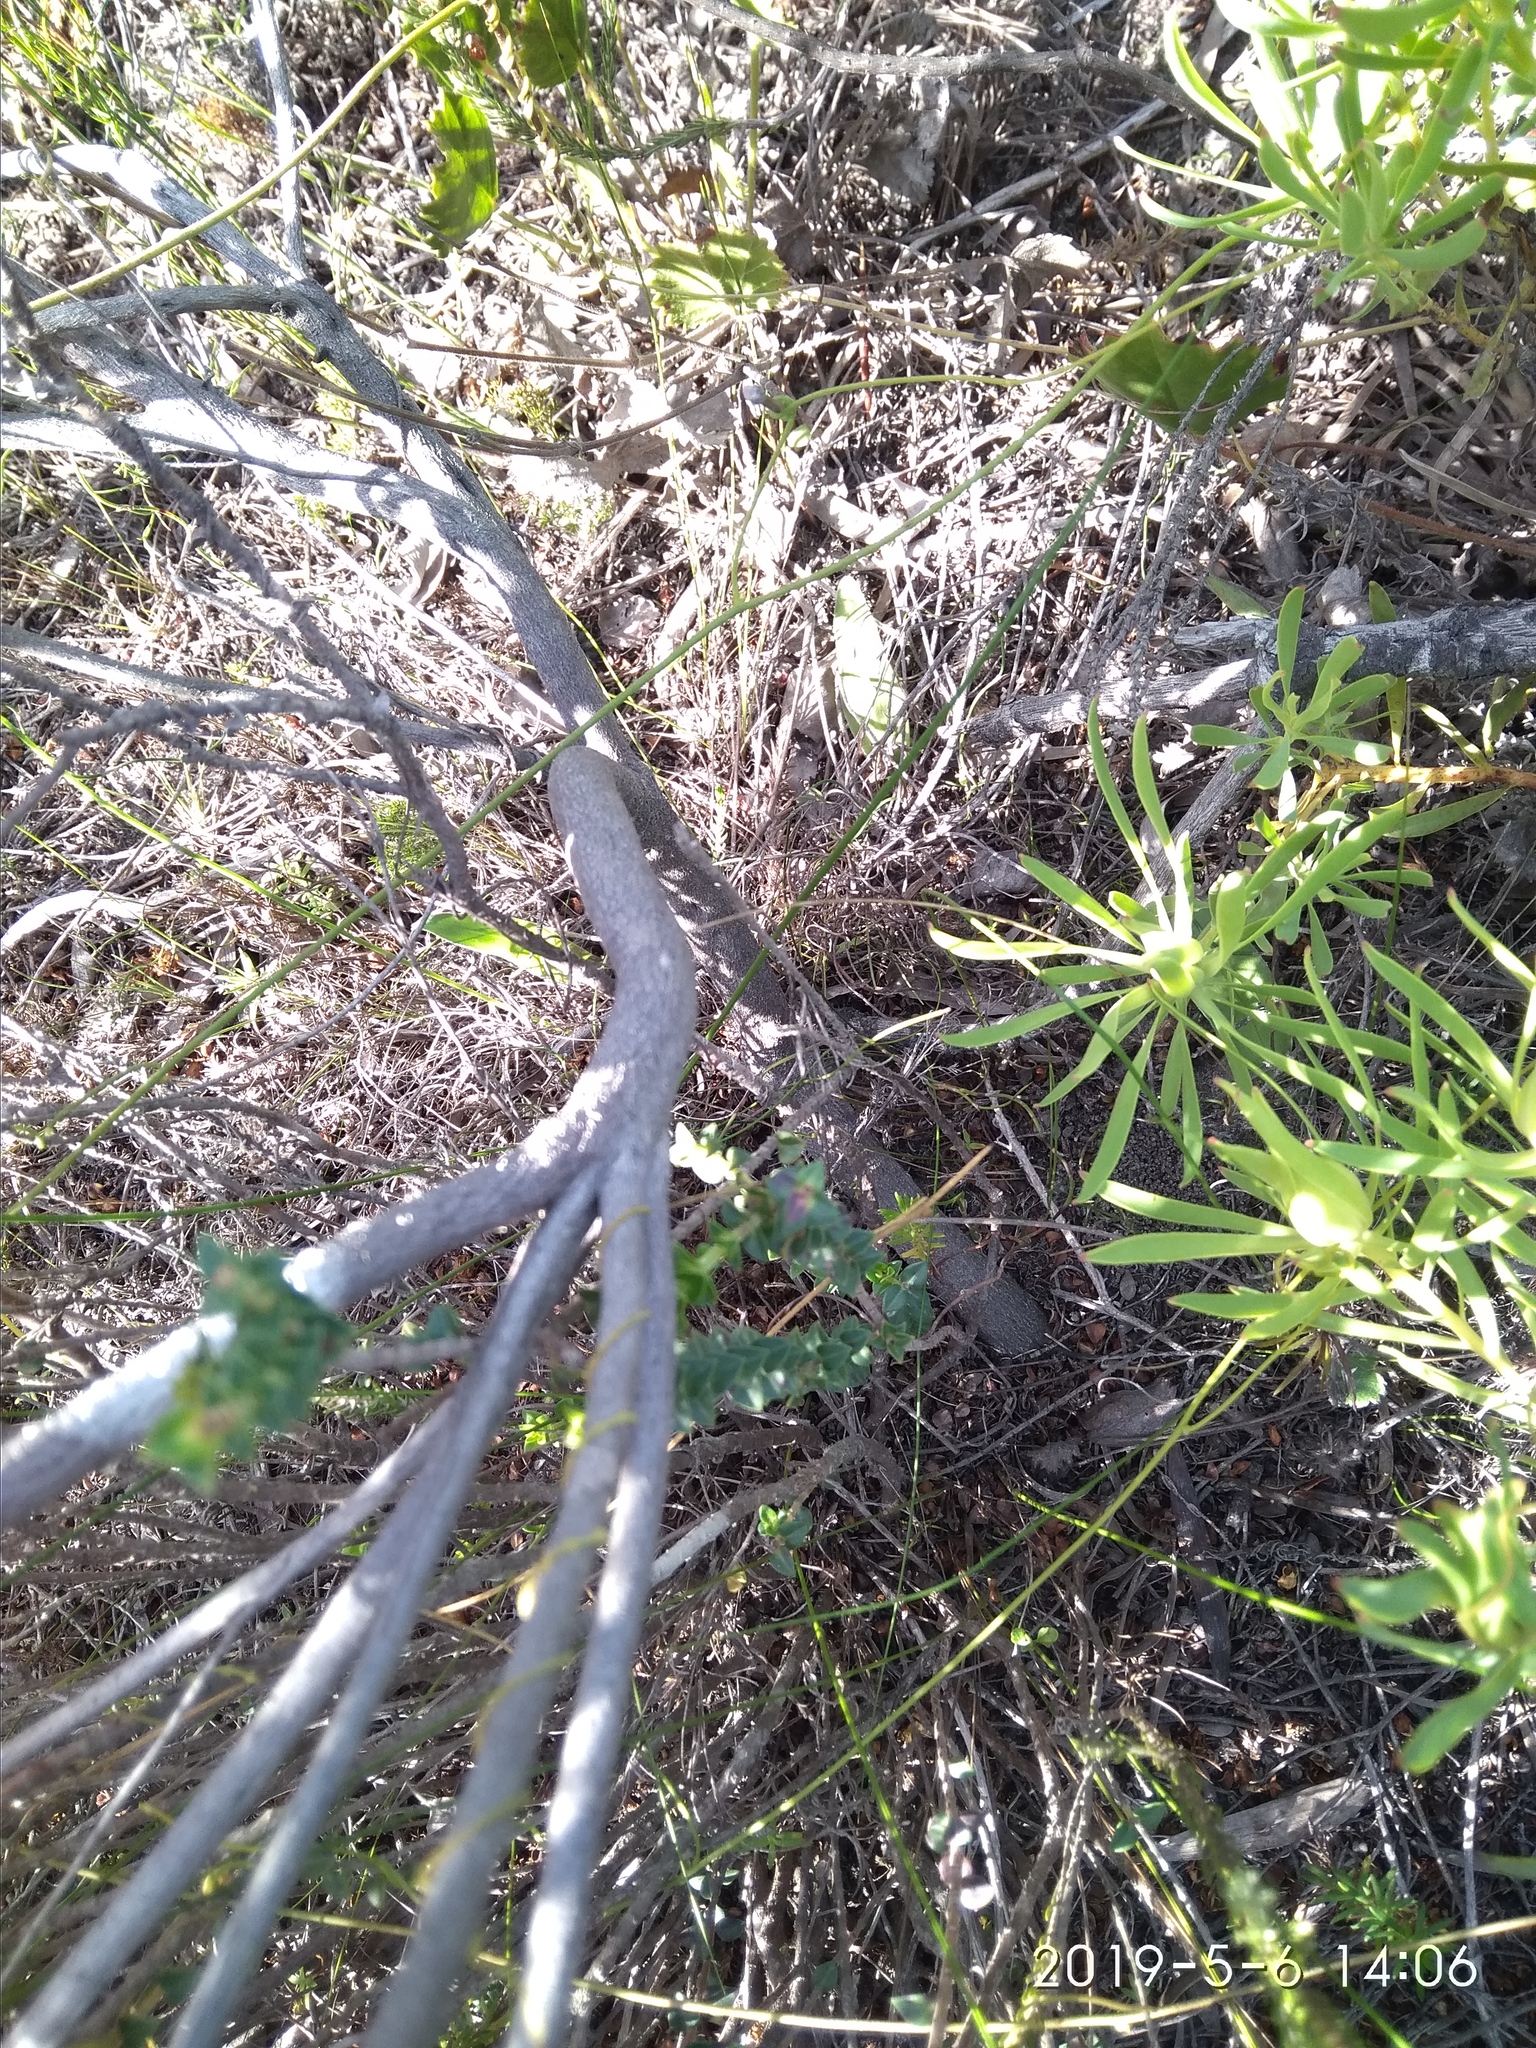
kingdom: Plantae
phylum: Tracheophyta
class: Magnoliopsida
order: Ericales
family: Ericaceae
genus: Erica
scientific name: Erica axilliflora
